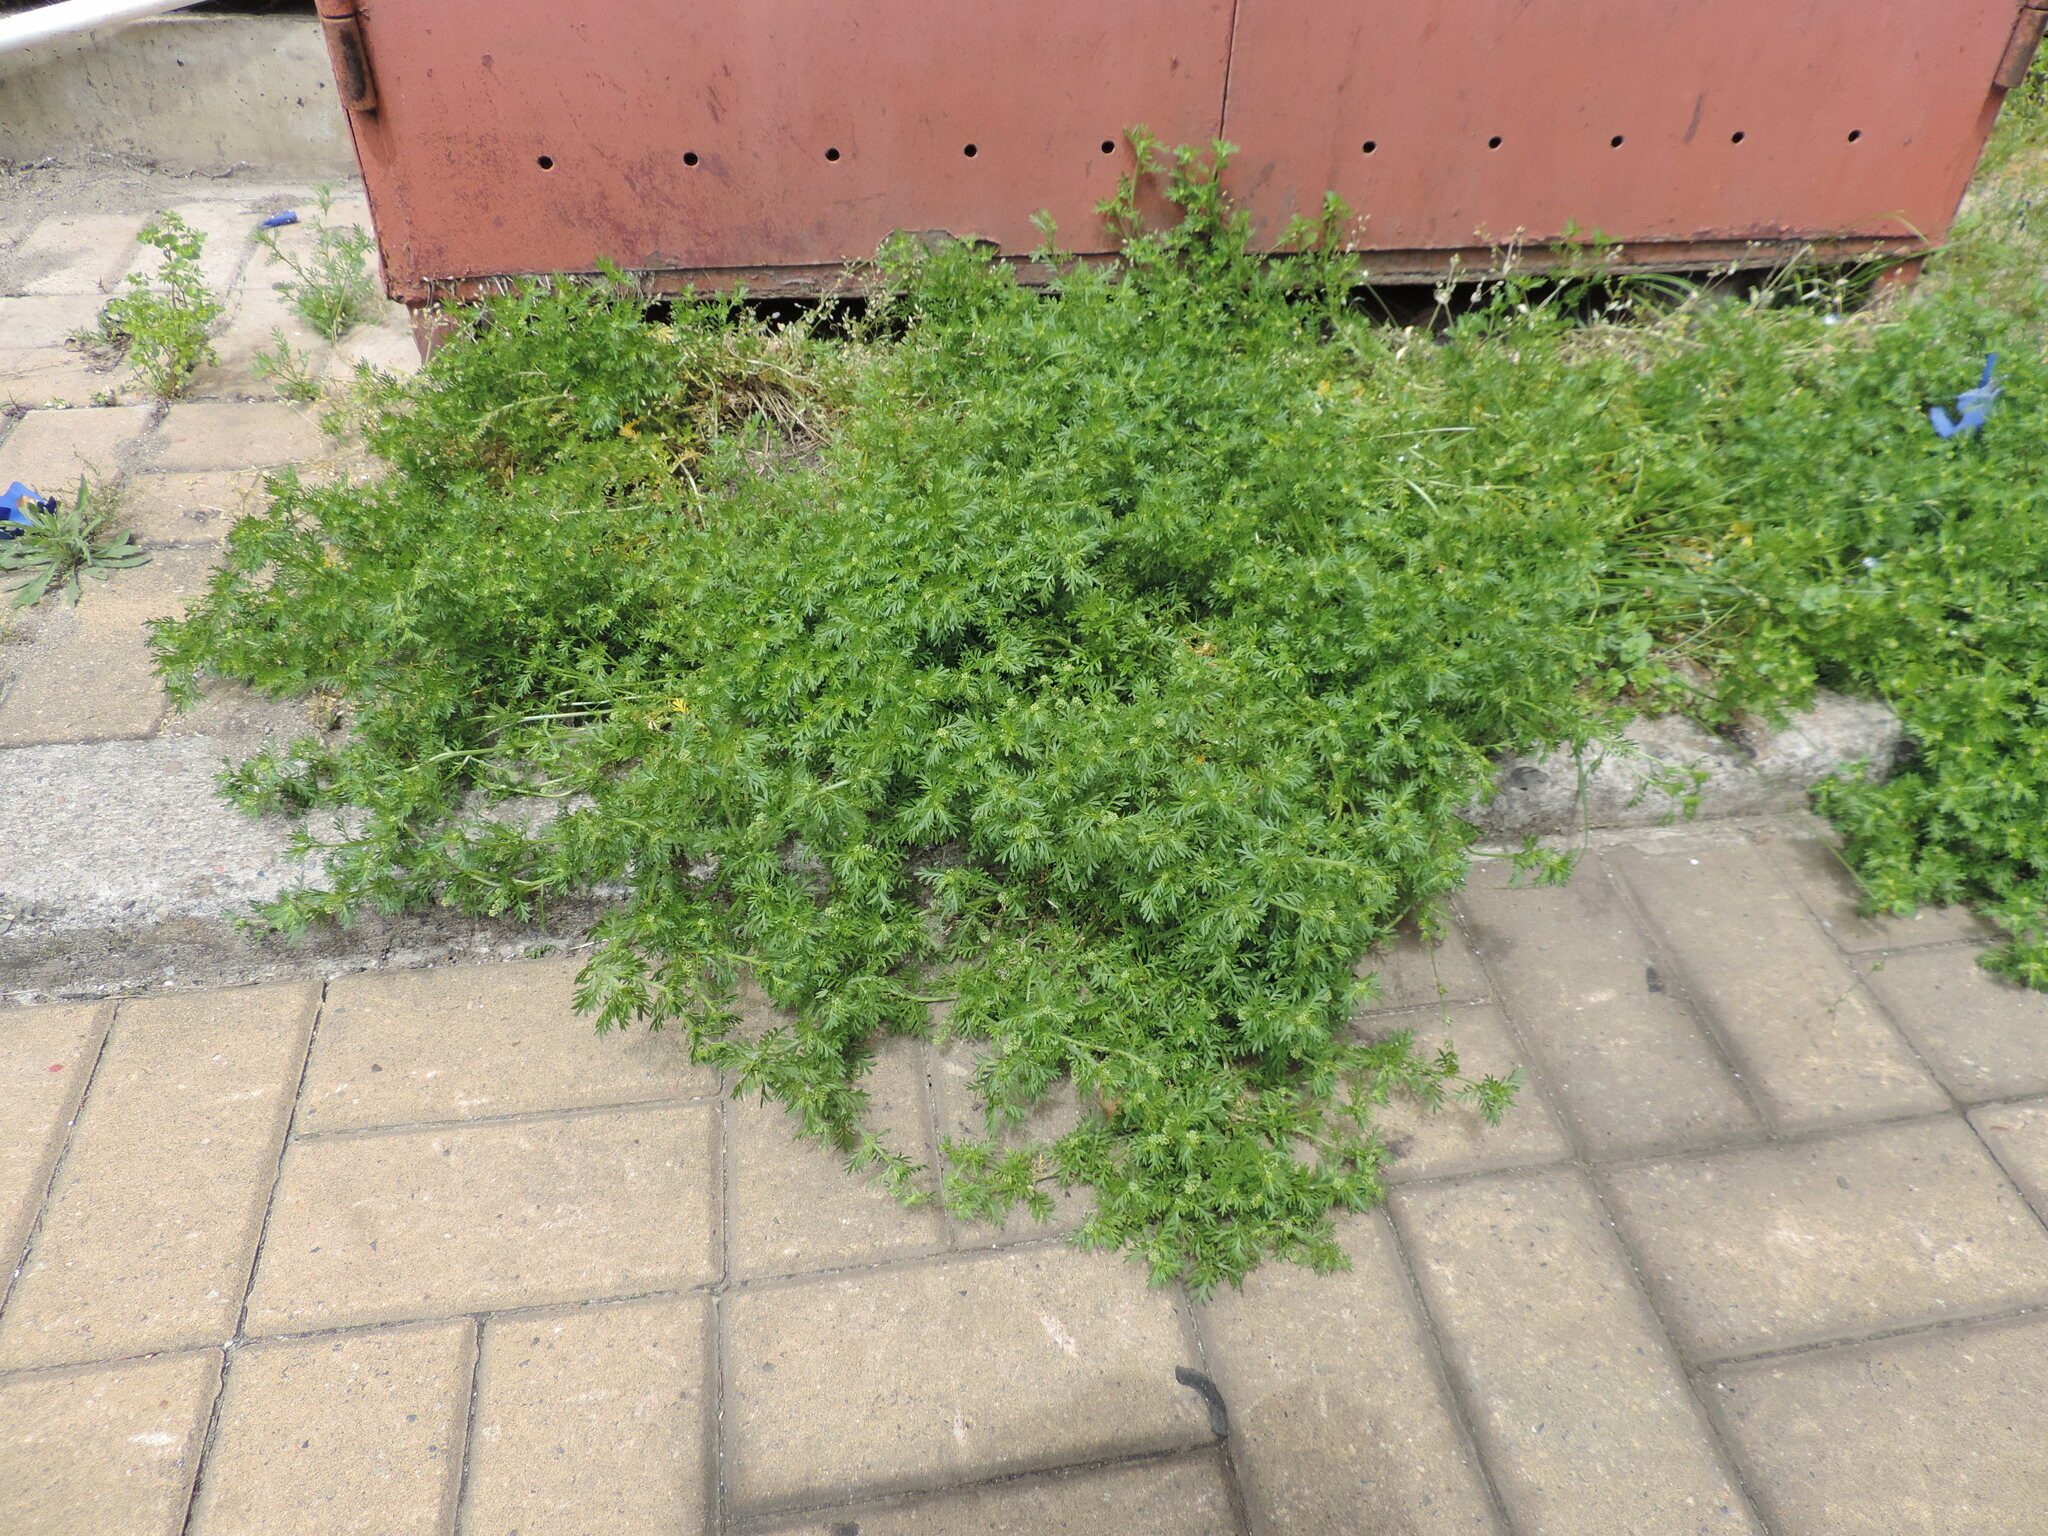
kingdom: Plantae
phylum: Tracheophyta
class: Magnoliopsida
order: Brassicales
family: Brassicaceae
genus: Lepidium
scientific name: Lepidium didymum
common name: Lesser swinecress
